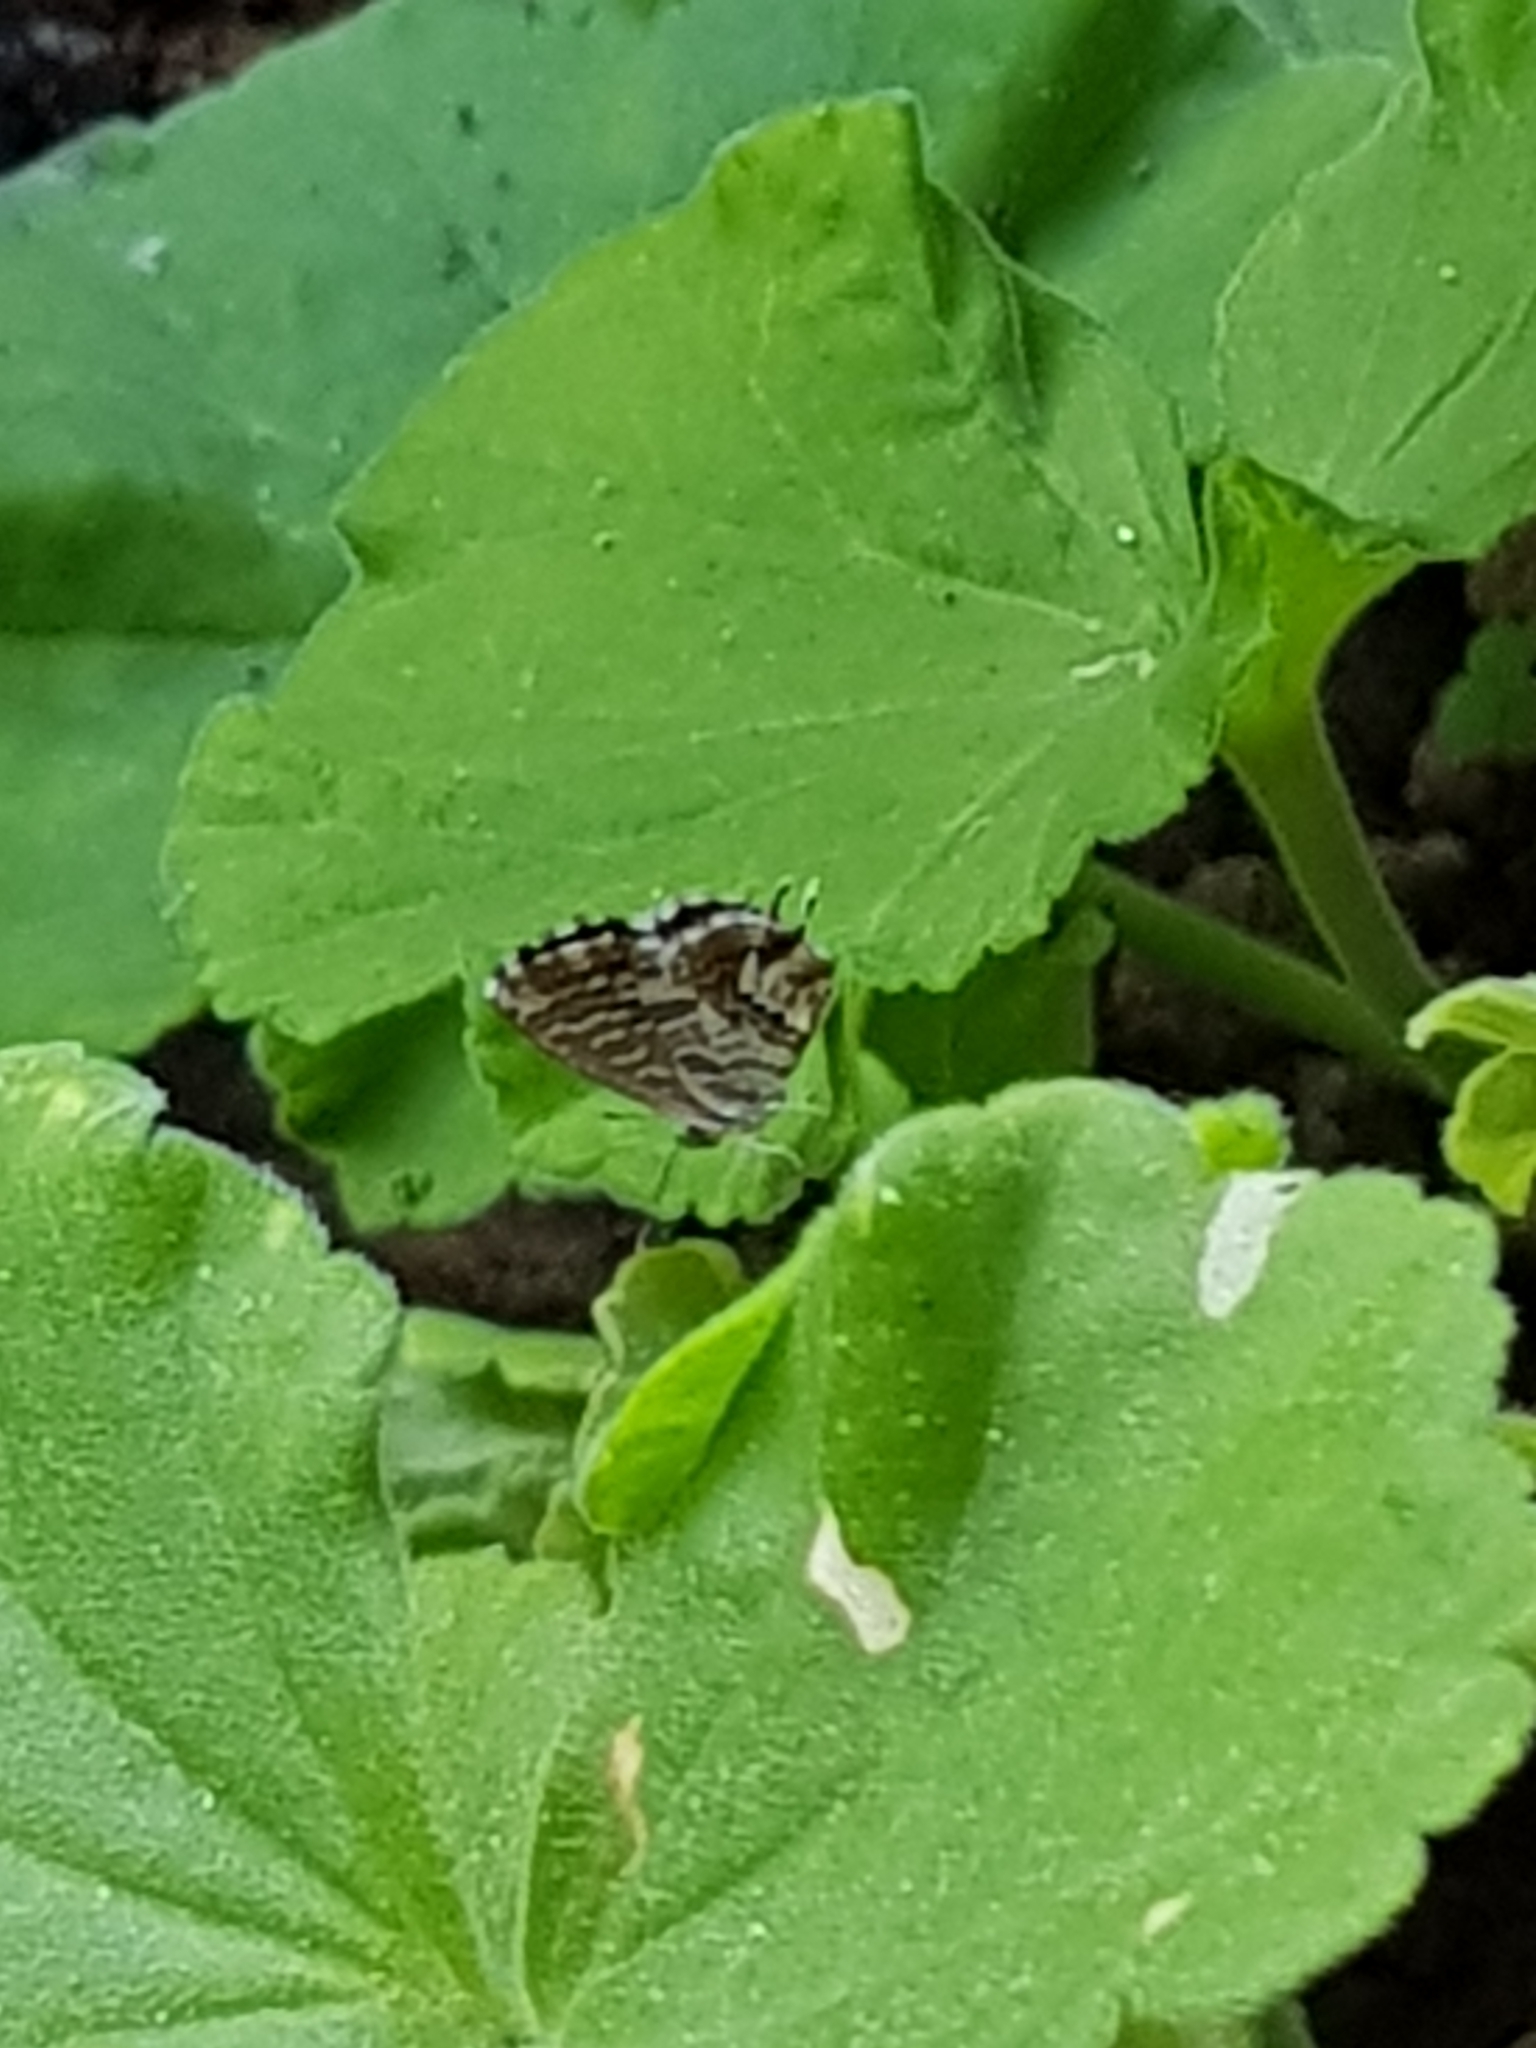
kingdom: Animalia
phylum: Arthropoda
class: Insecta
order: Lepidoptera
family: Lycaenidae
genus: Cacyreus
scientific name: Cacyreus marshalli
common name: Geranium bronze
